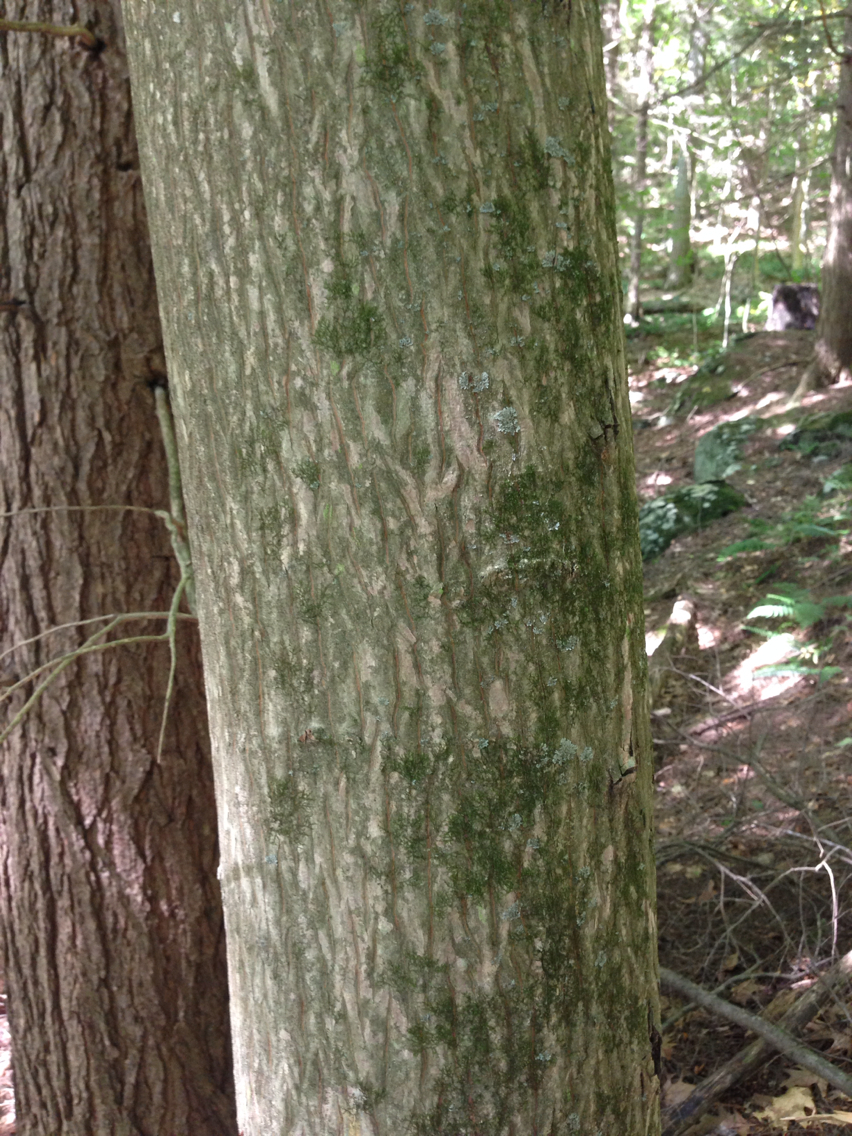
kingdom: Plantae
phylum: Tracheophyta
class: Magnoliopsida
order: Fagales
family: Juglandaceae
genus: Carya
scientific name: Carya cordiformis
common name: Bitternut hickory
